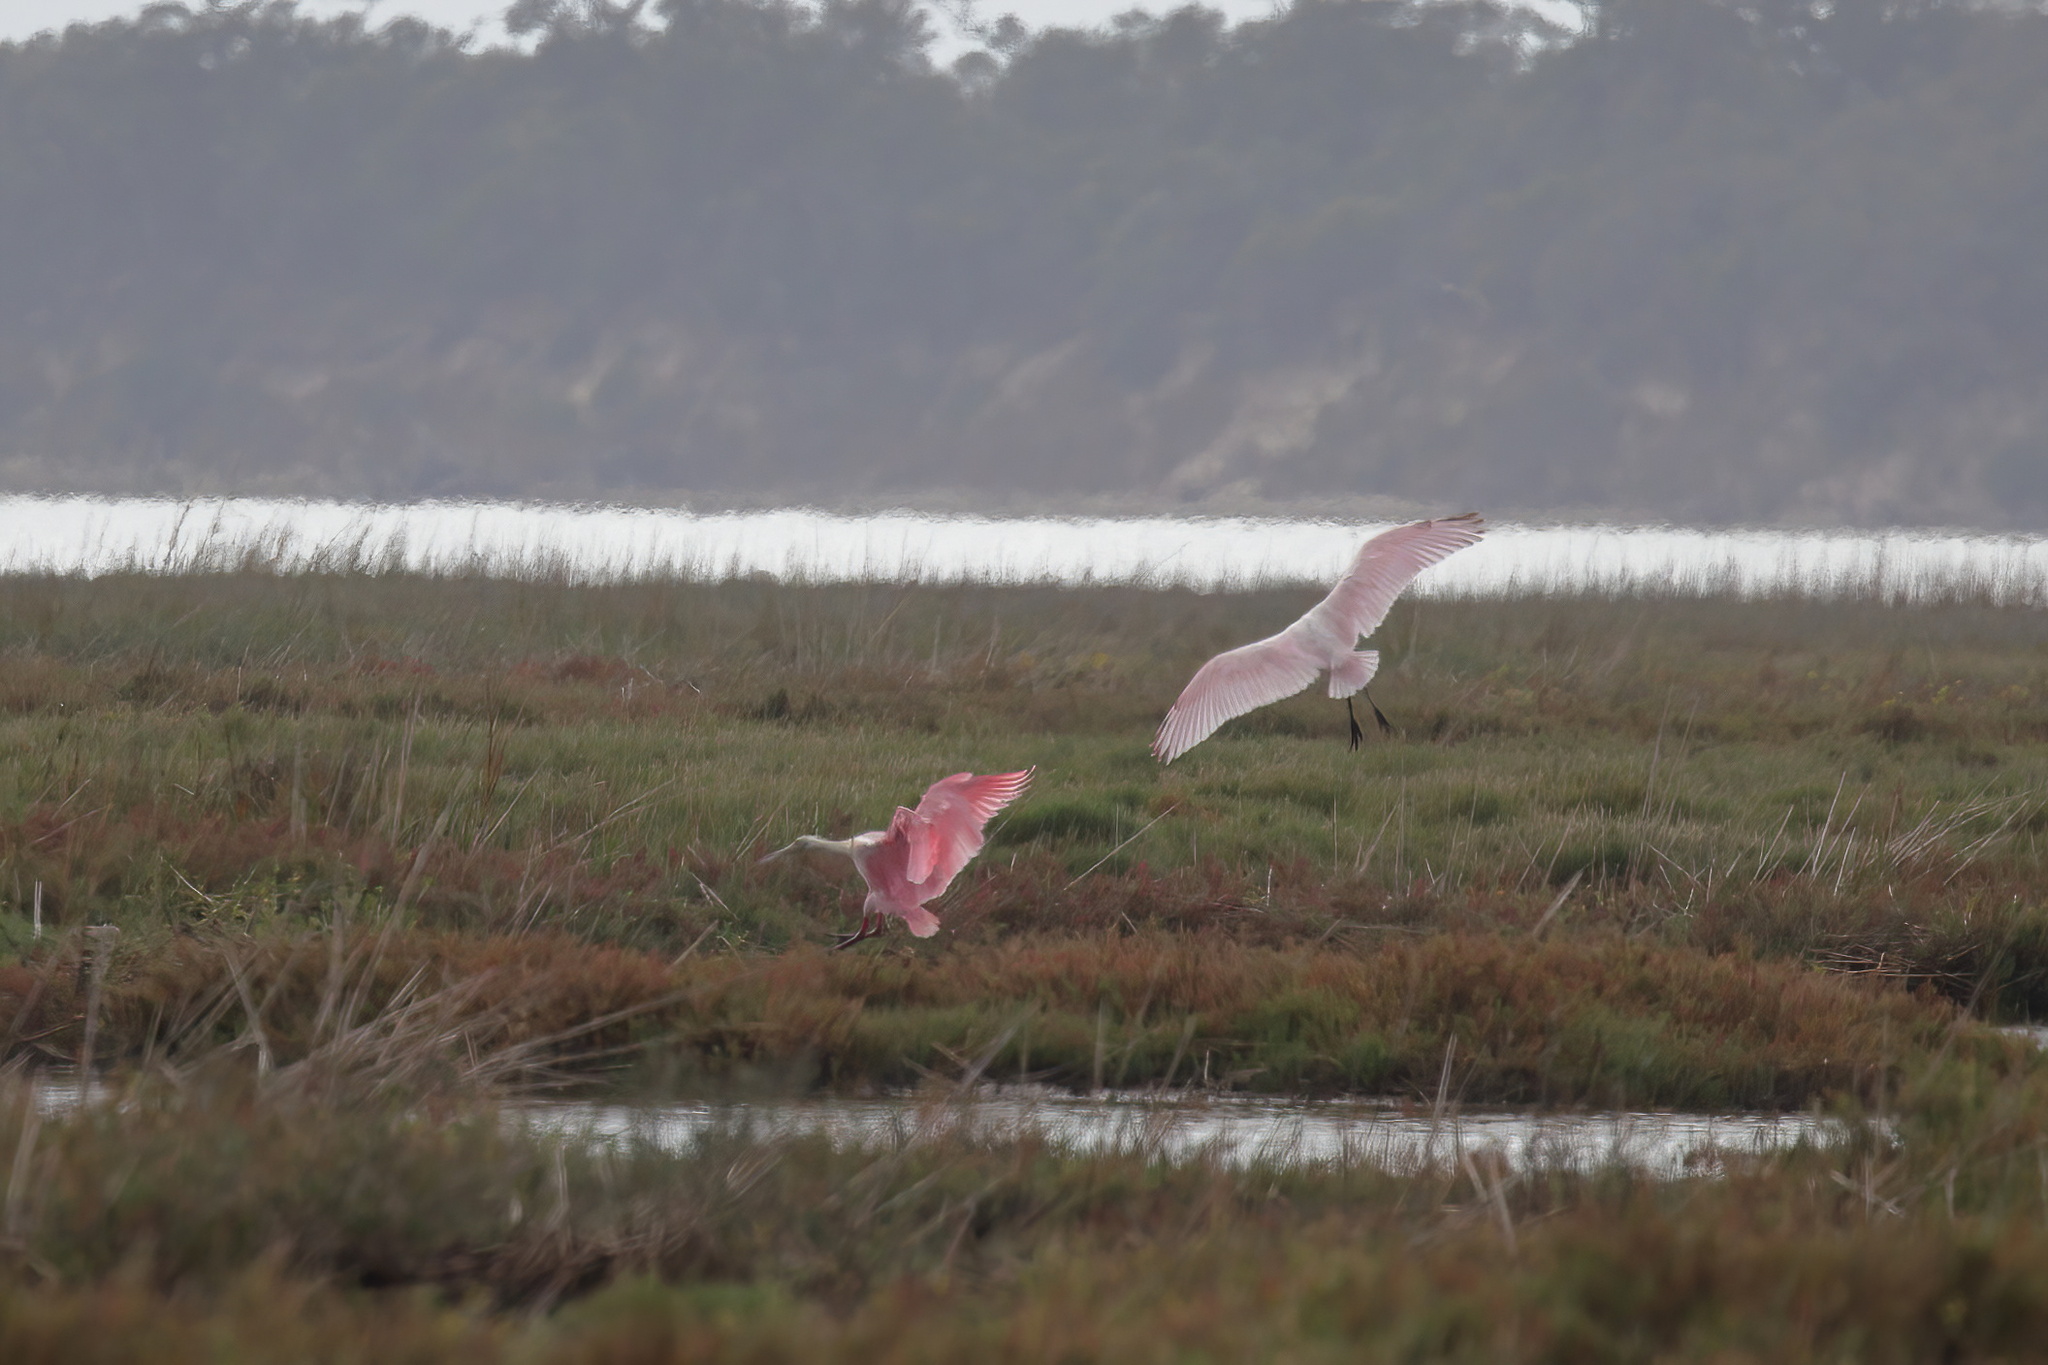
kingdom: Animalia
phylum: Chordata
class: Aves
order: Pelecaniformes
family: Threskiornithidae
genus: Platalea
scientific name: Platalea ajaja
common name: Roseate spoonbill
